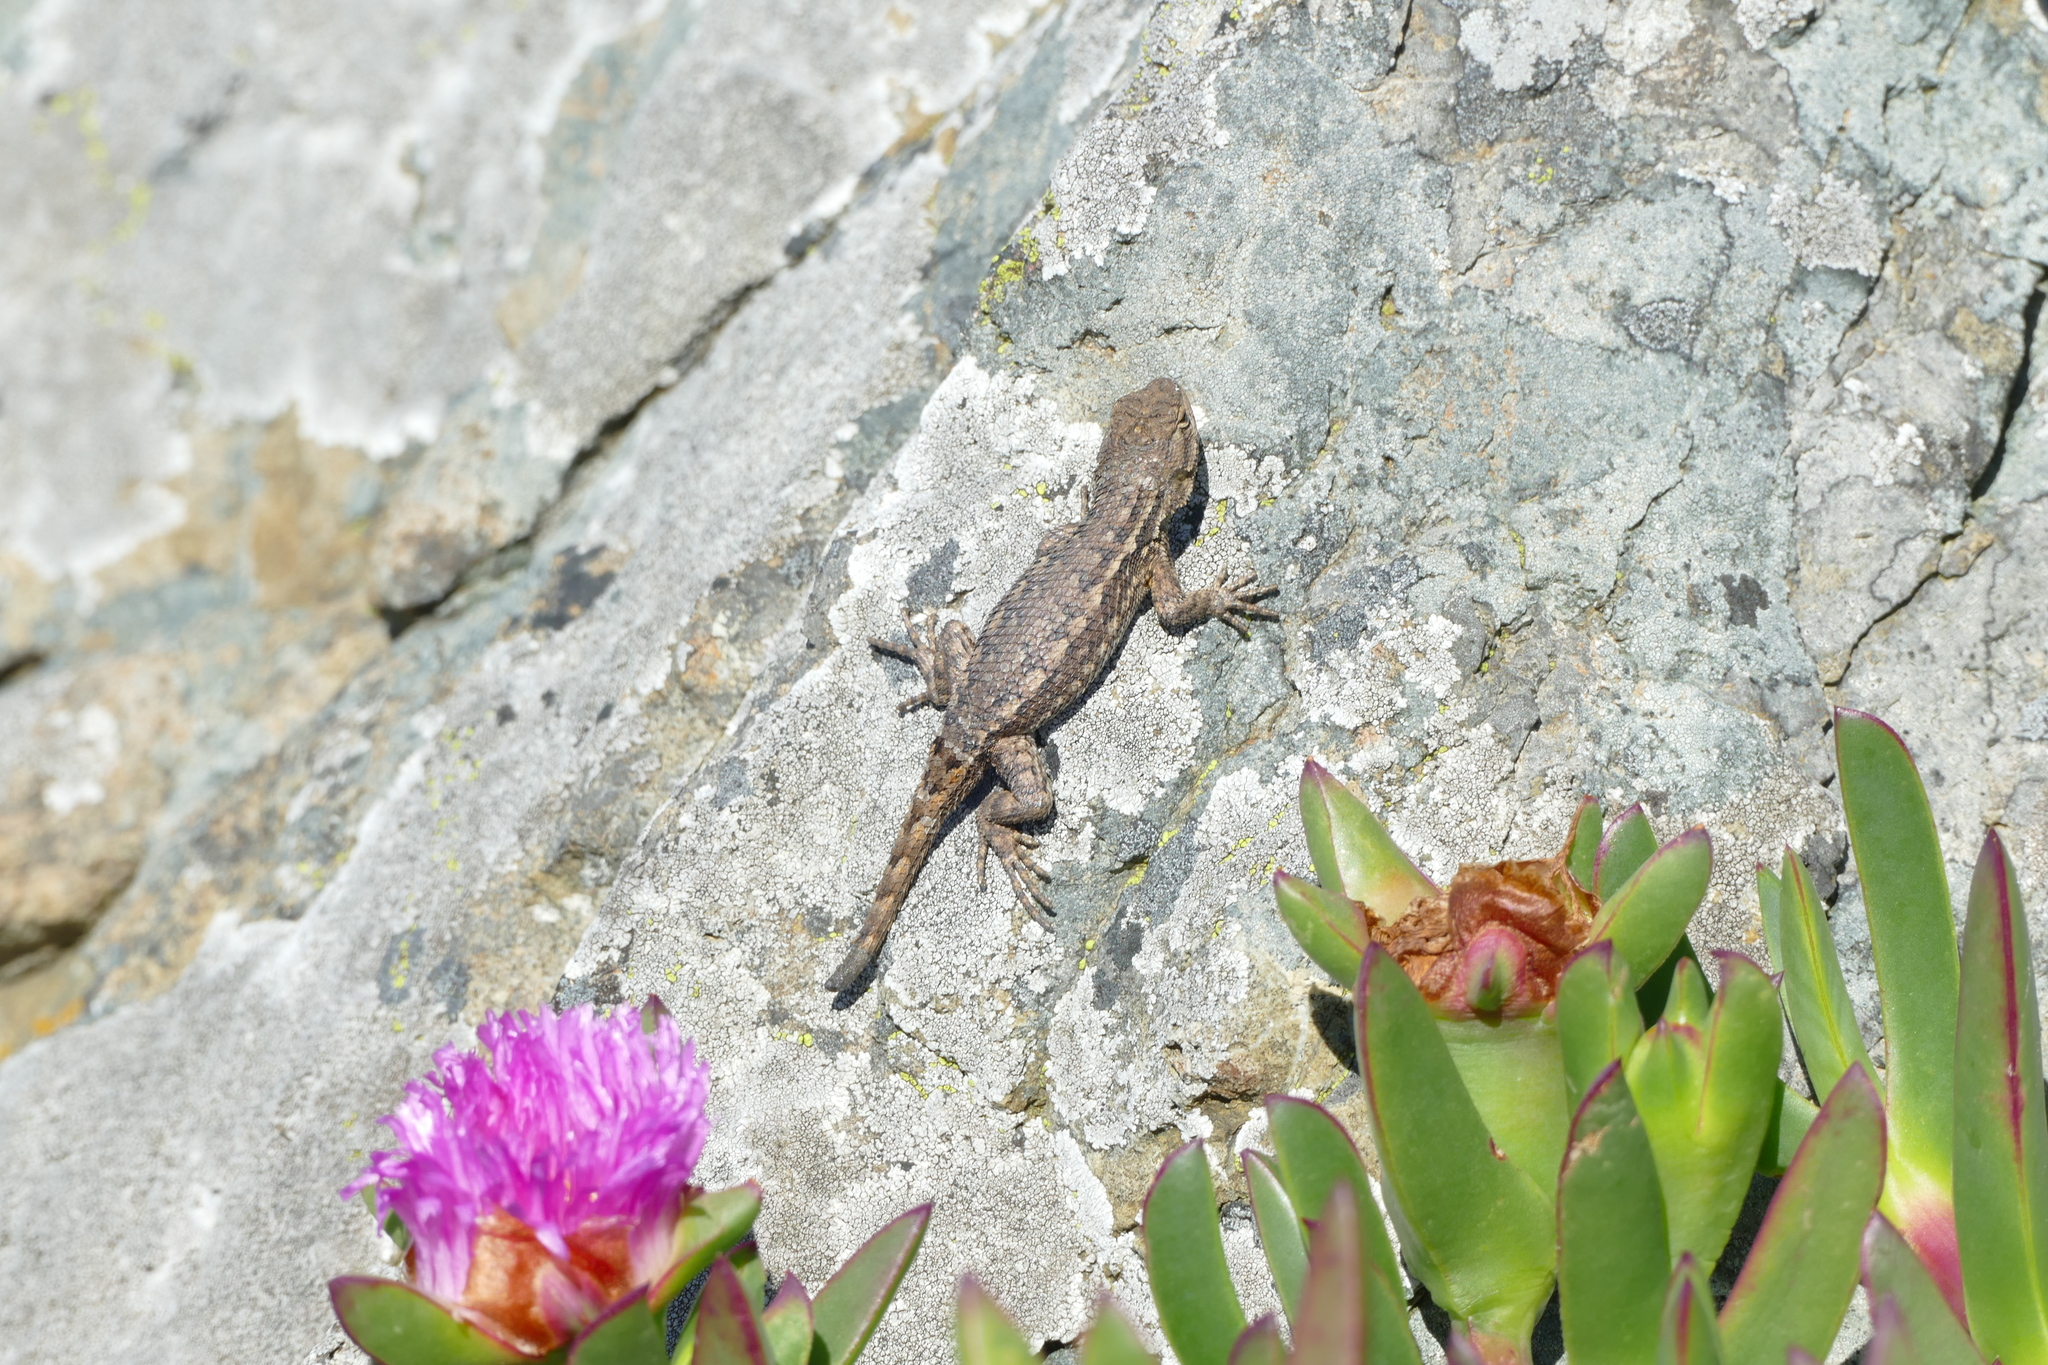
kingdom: Animalia
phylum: Chordata
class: Squamata
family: Phrynosomatidae
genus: Sceloporus
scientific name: Sceloporus occidentalis
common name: Western fence lizard
